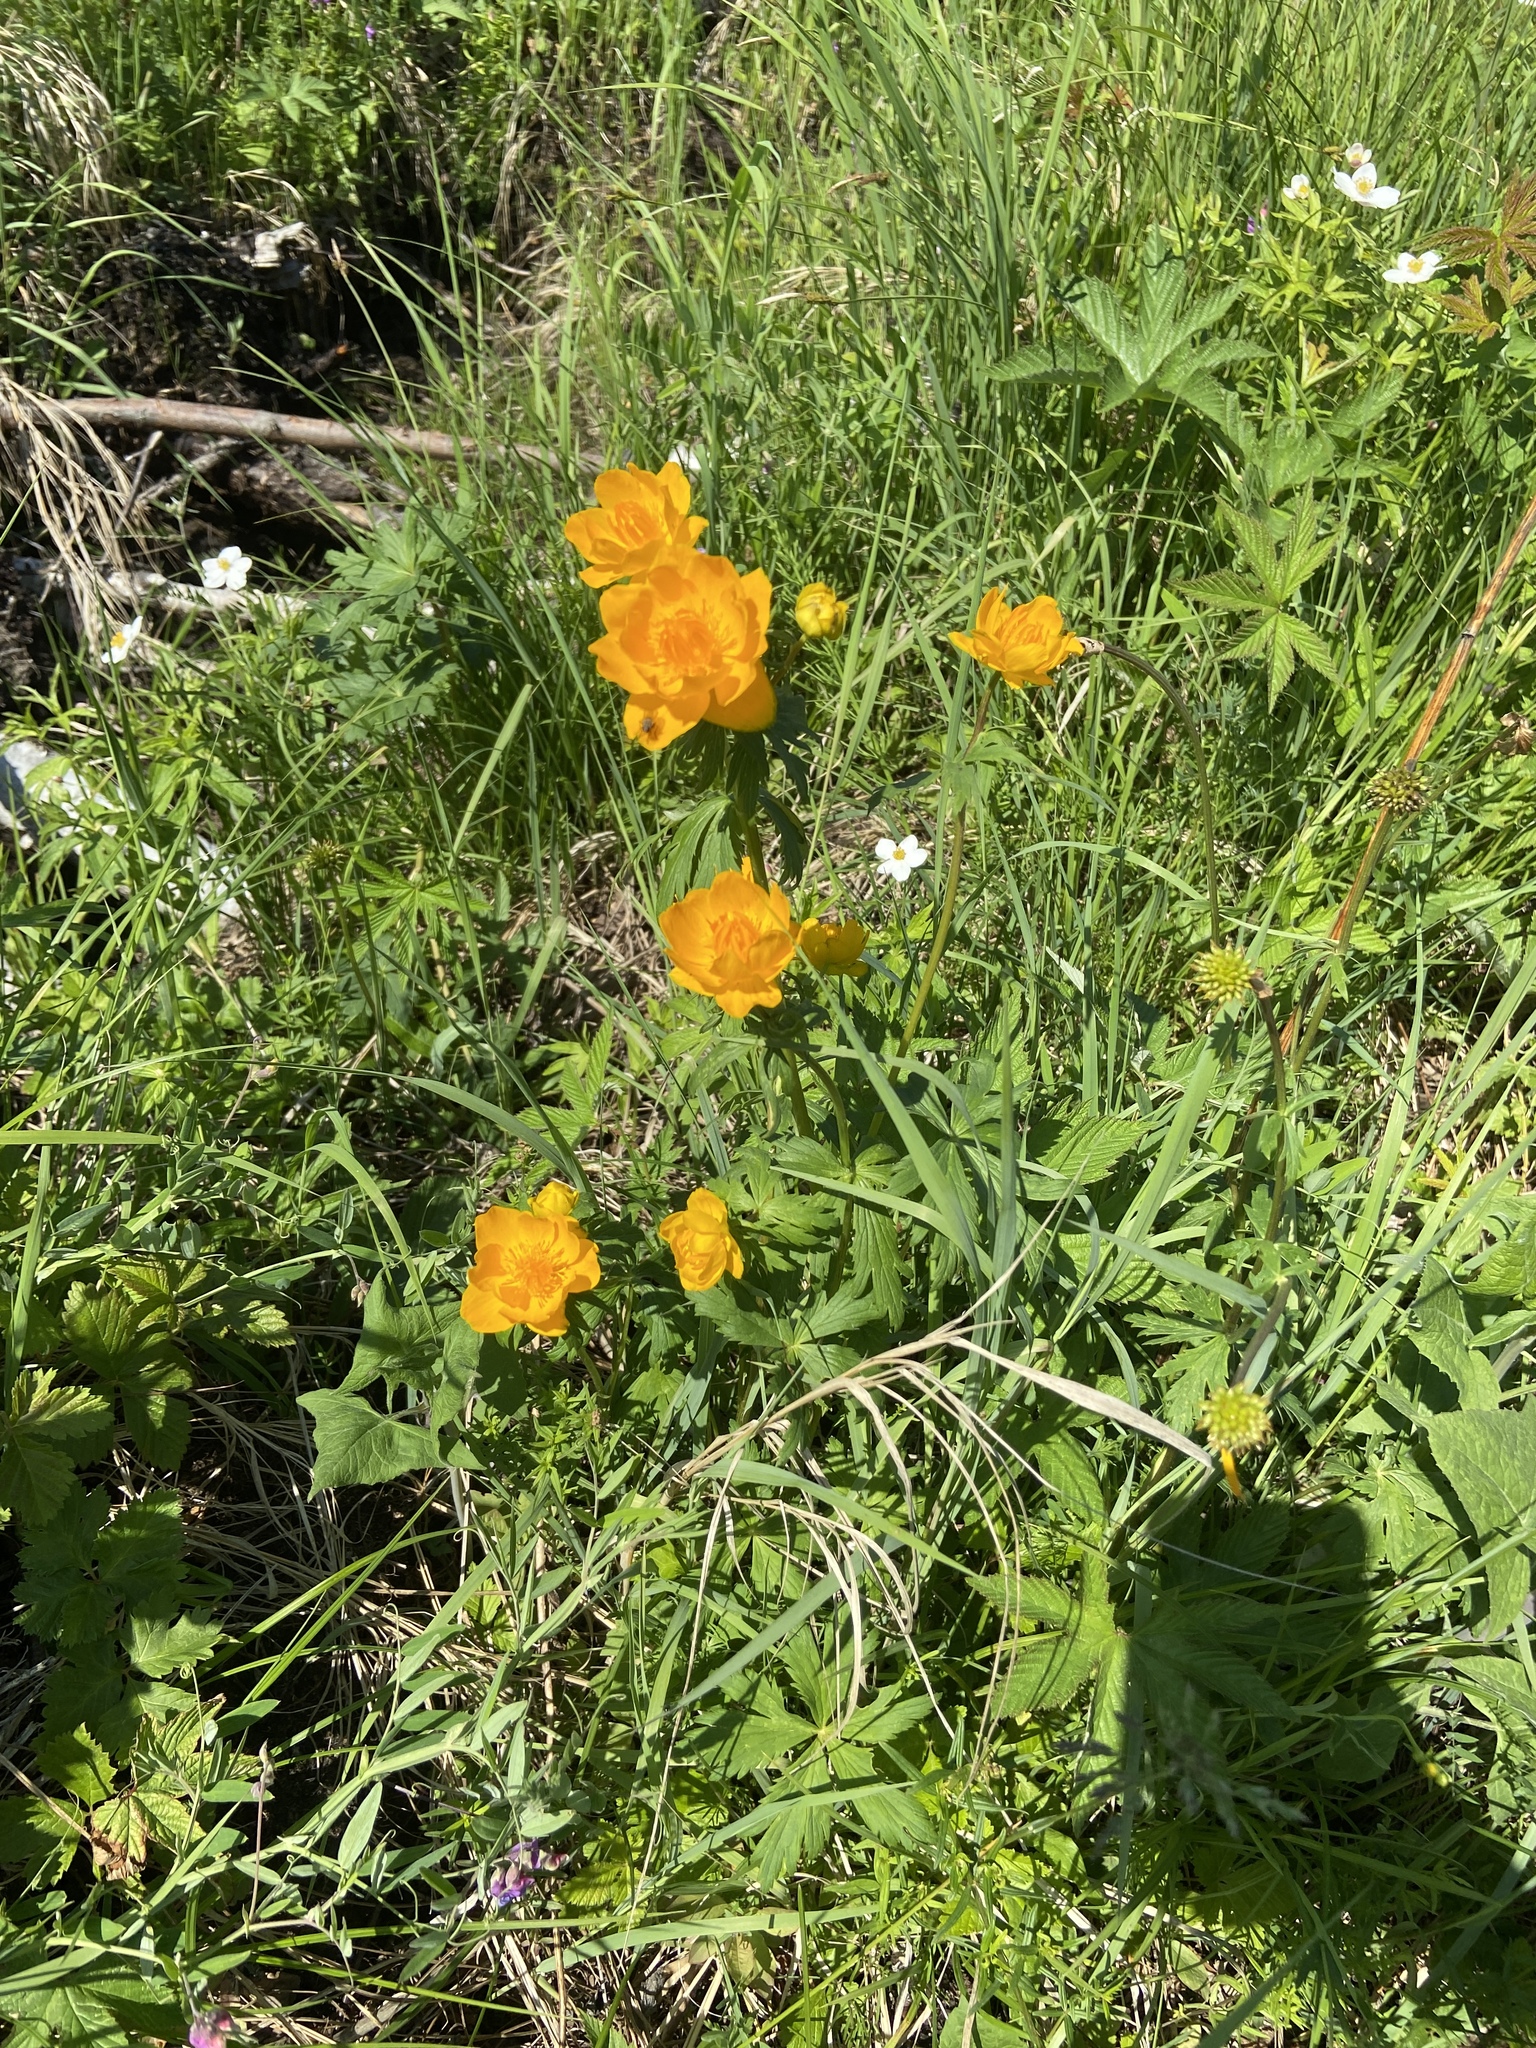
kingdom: Plantae
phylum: Tracheophyta
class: Magnoliopsida
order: Ranunculales
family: Ranunculaceae
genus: Trollius
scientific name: Trollius asiaticus
